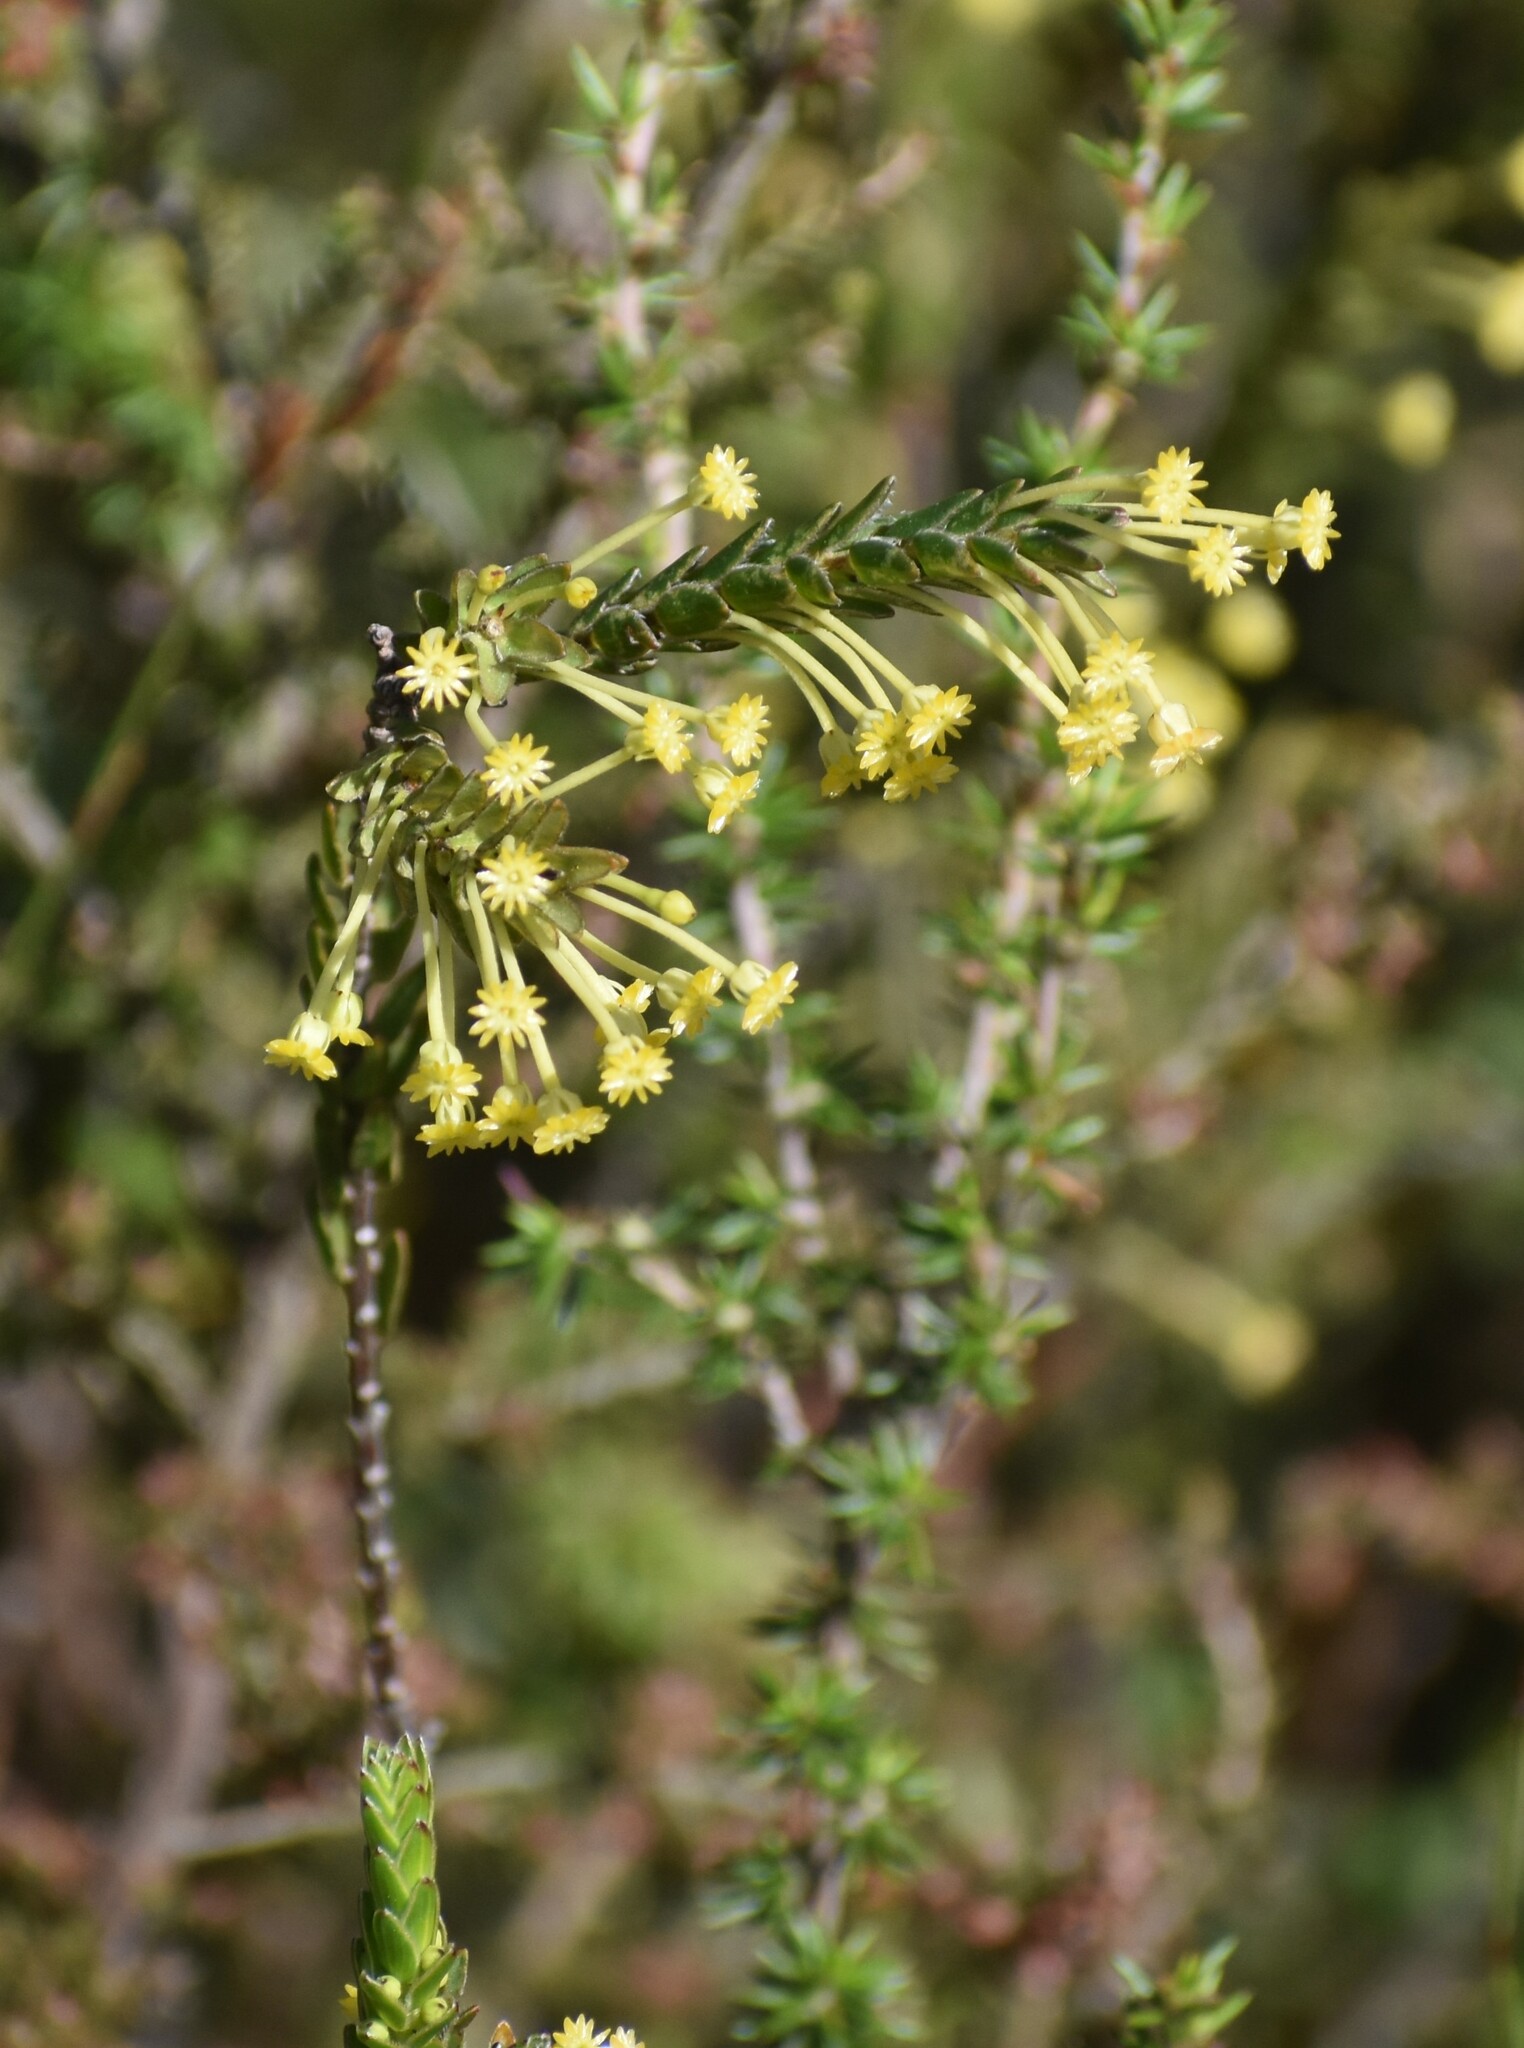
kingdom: Plantae
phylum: Tracheophyta
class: Magnoliopsida
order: Malvales
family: Thymelaeaceae
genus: Struthiola
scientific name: Struthiola garciana
